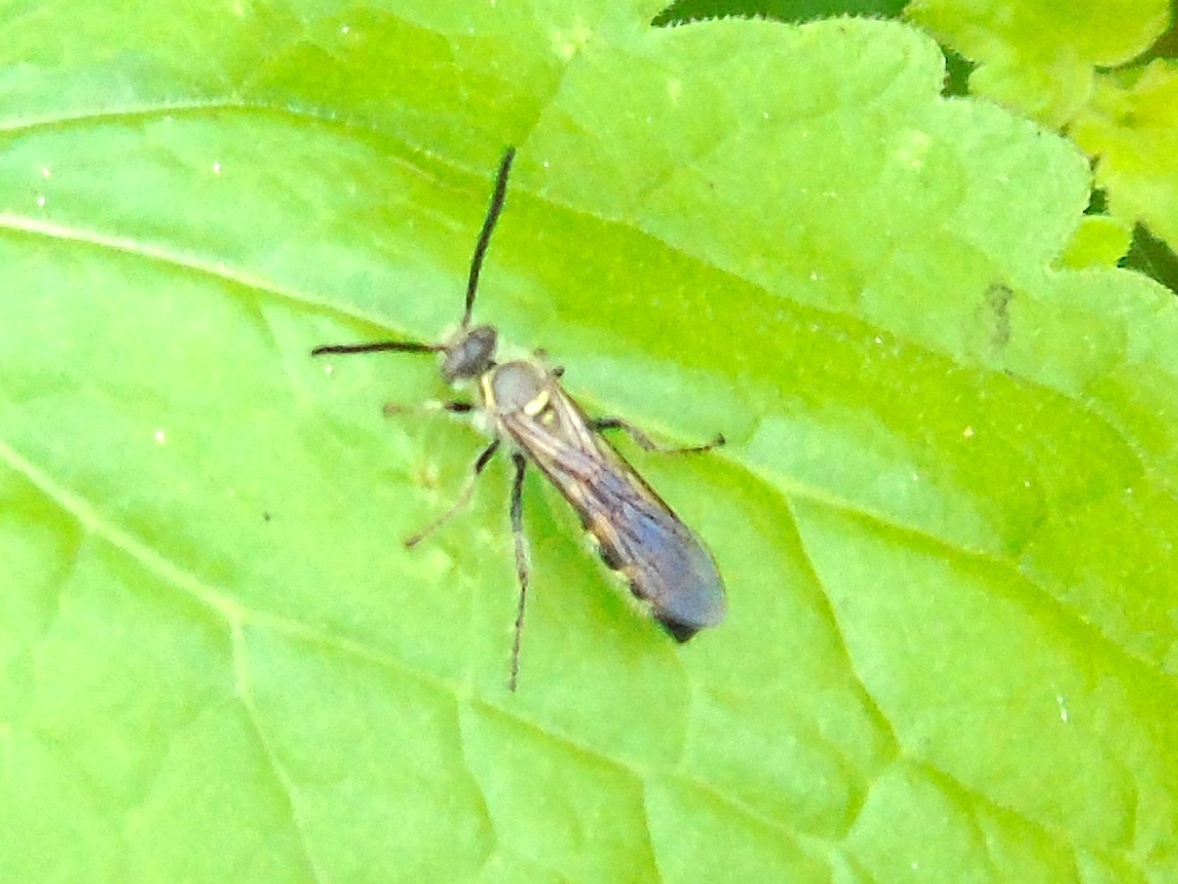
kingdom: Animalia
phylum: Arthropoda
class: Insecta
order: Hymenoptera
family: Scoliidae
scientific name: Scoliidae
